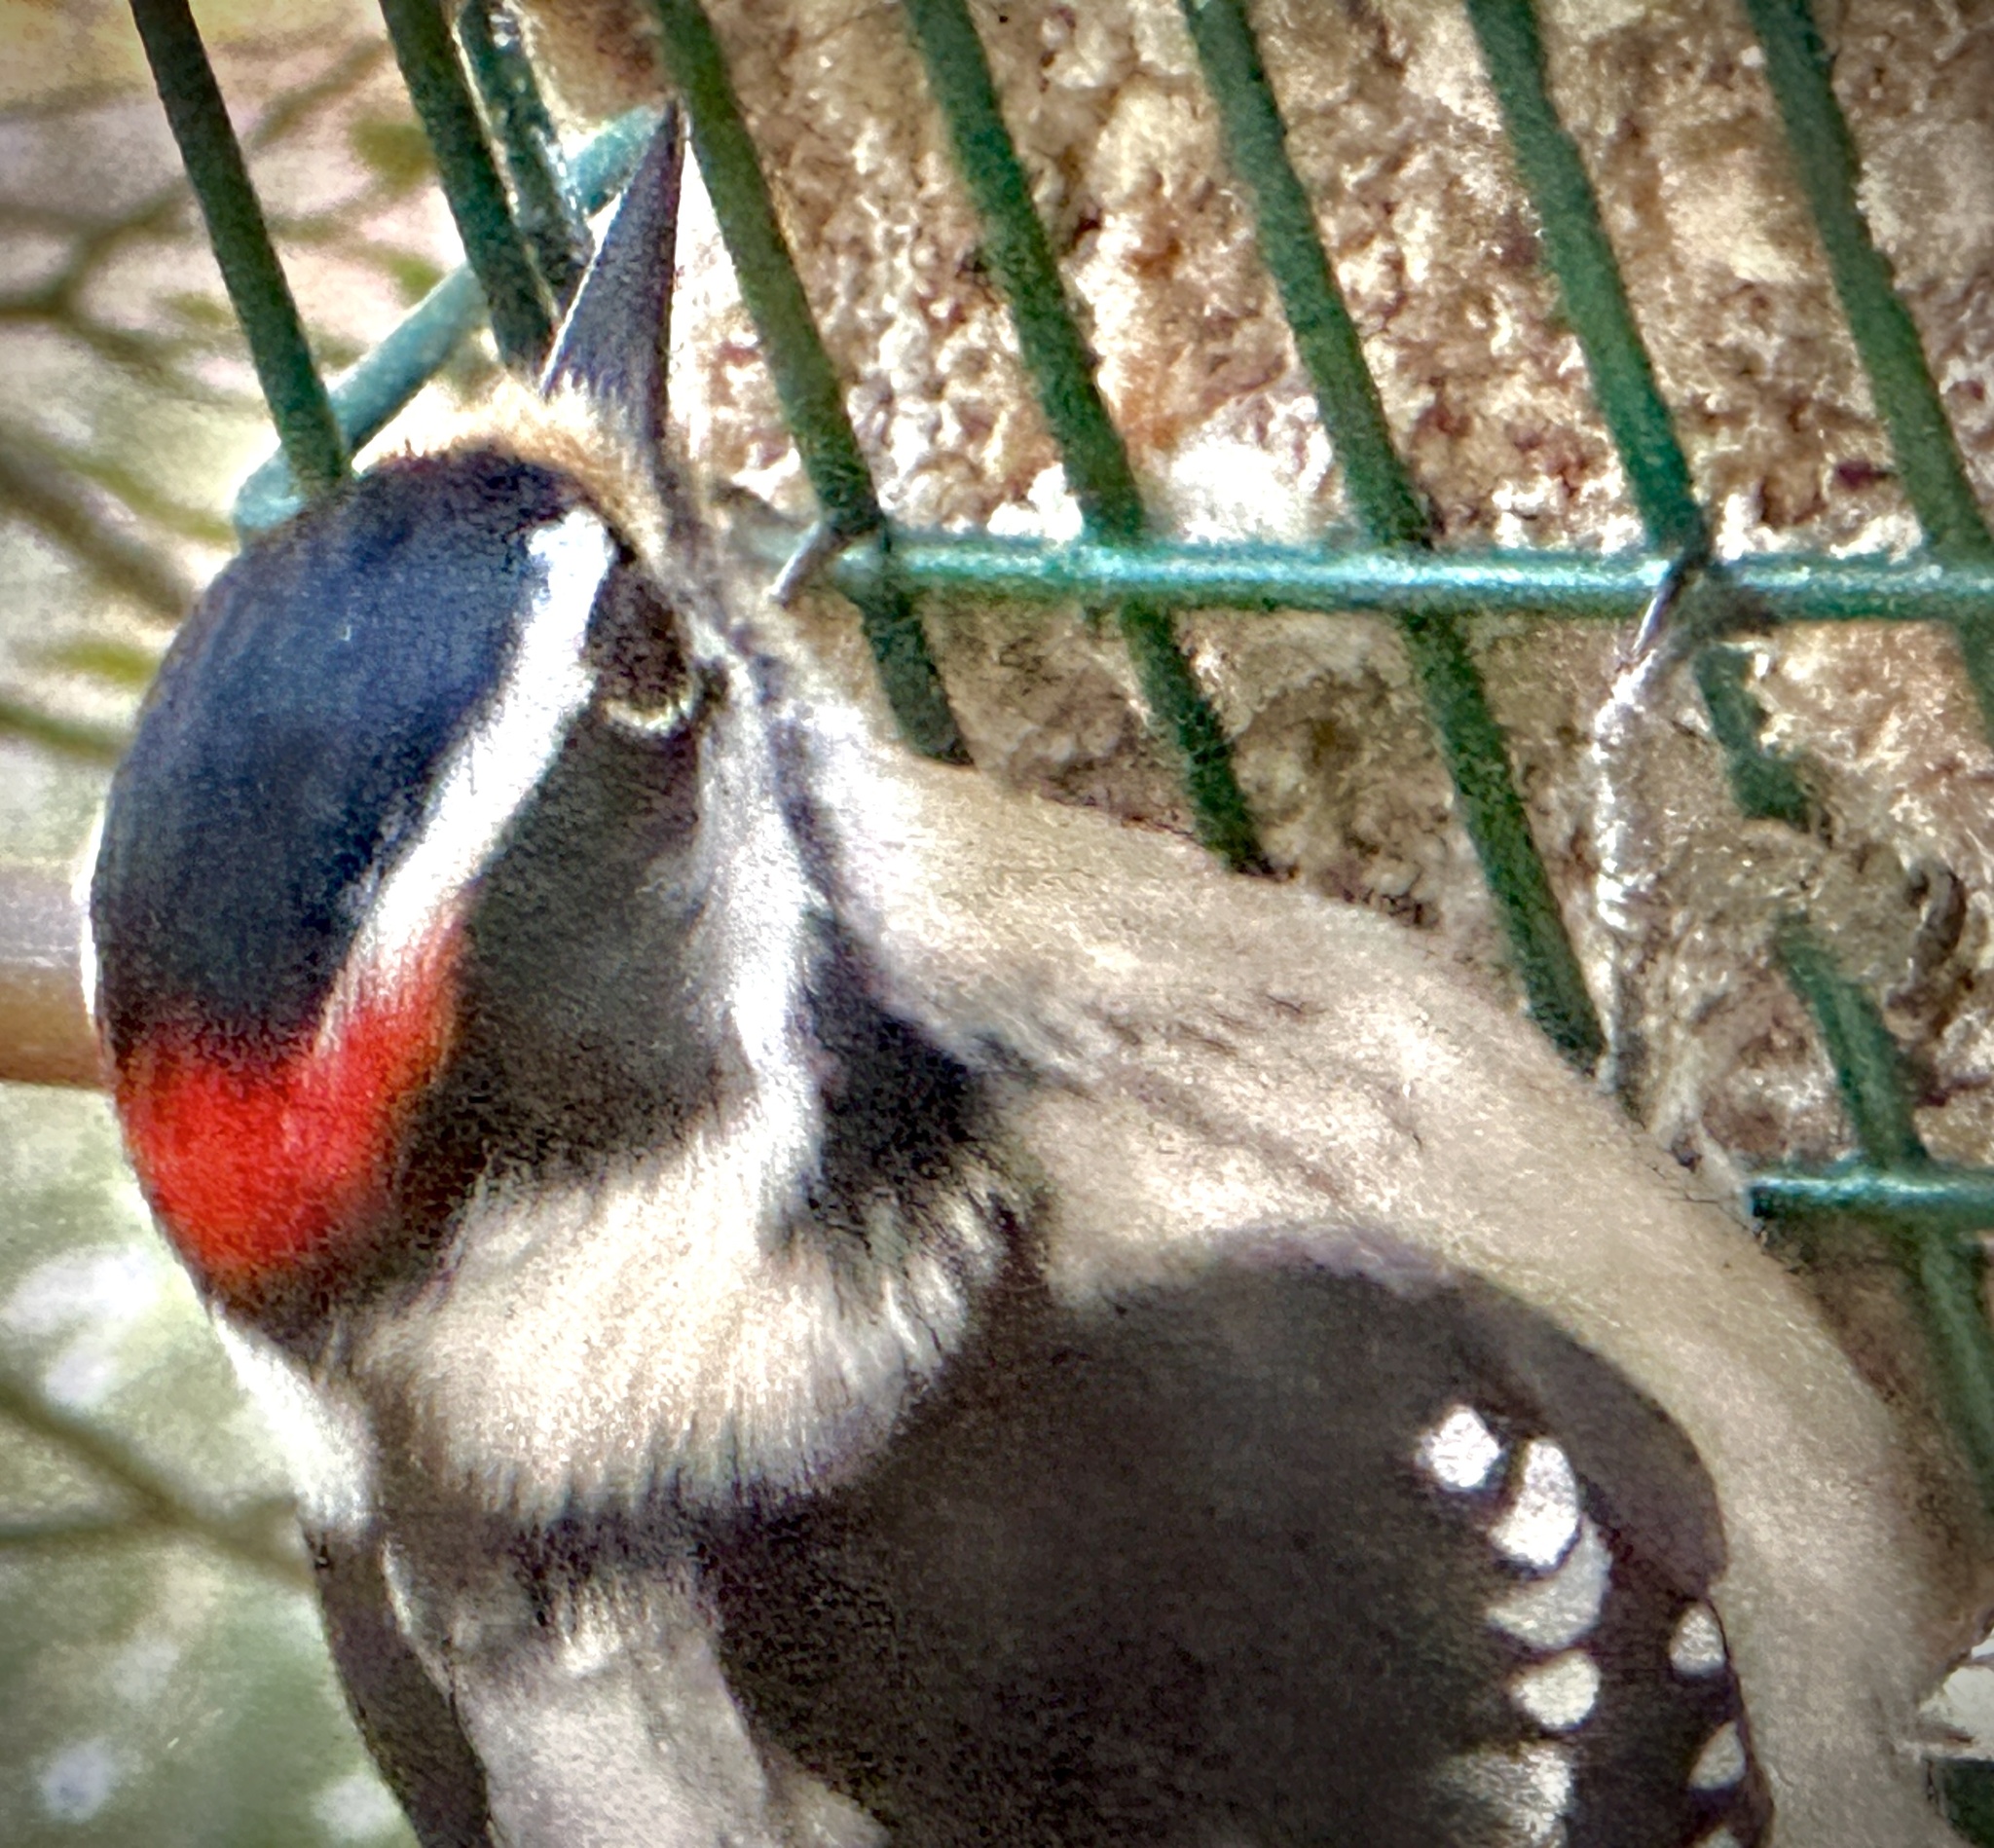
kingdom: Animalia
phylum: Chordata
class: Aves
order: Piciformes
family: Picidae
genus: Dryobates
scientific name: Dryobates pubescens
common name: Downy woodpecker
